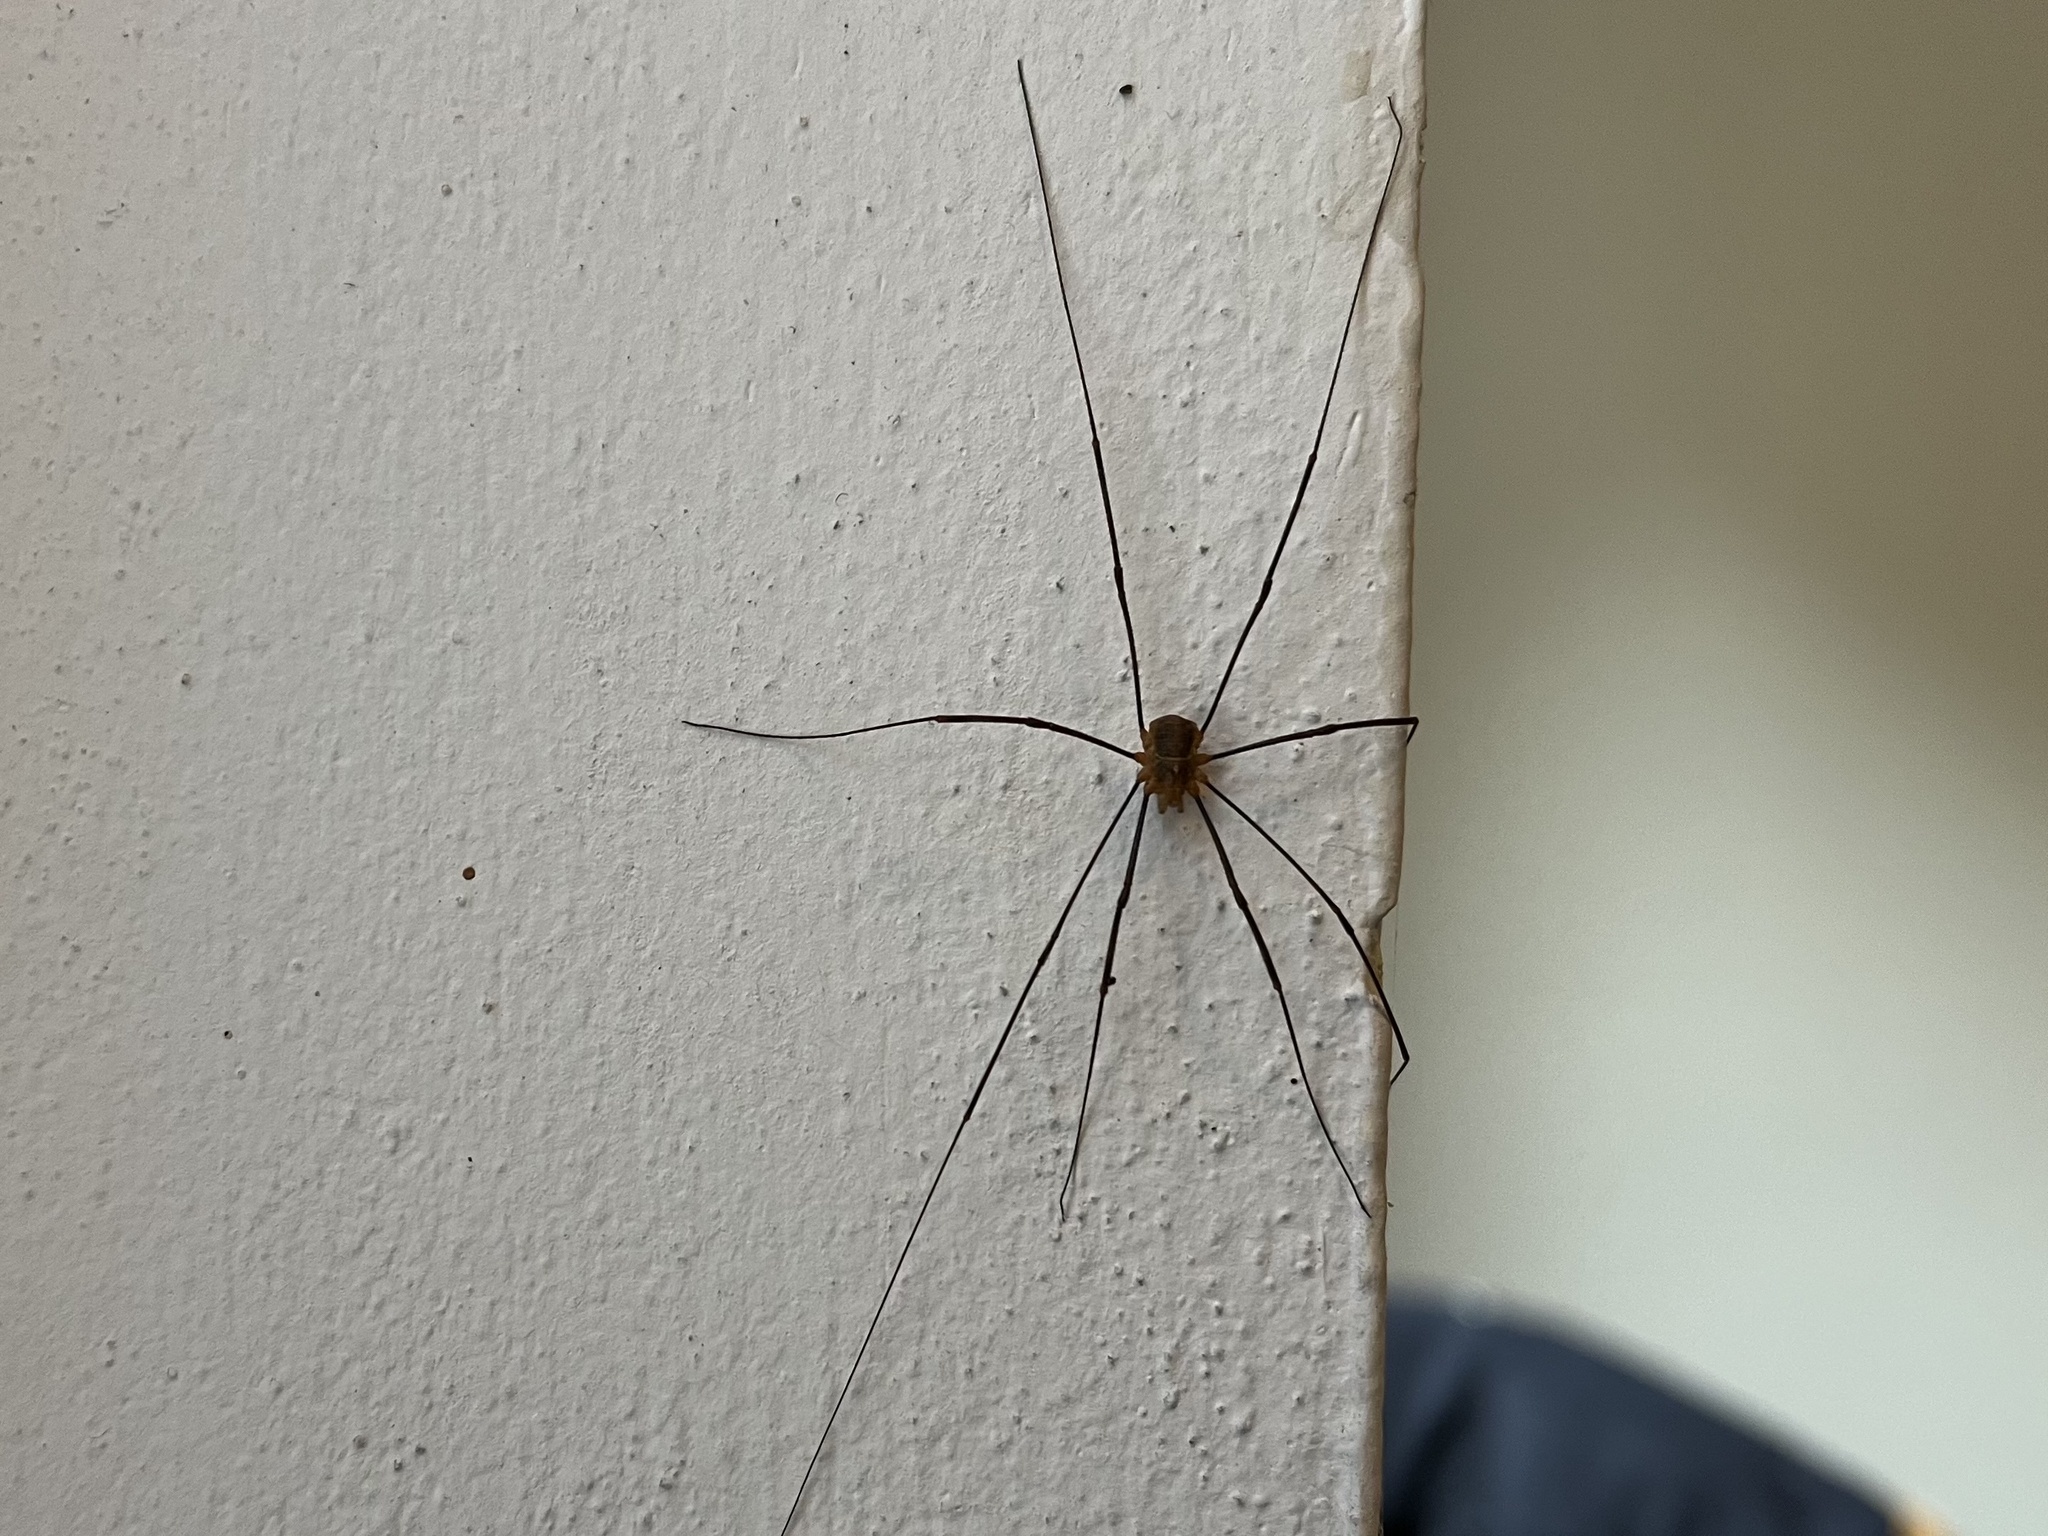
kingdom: Animalia
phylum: Arthropoda
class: Arachnida
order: Opiliones
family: Phalangiidae
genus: Opilio
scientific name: Opilio canestrinii
